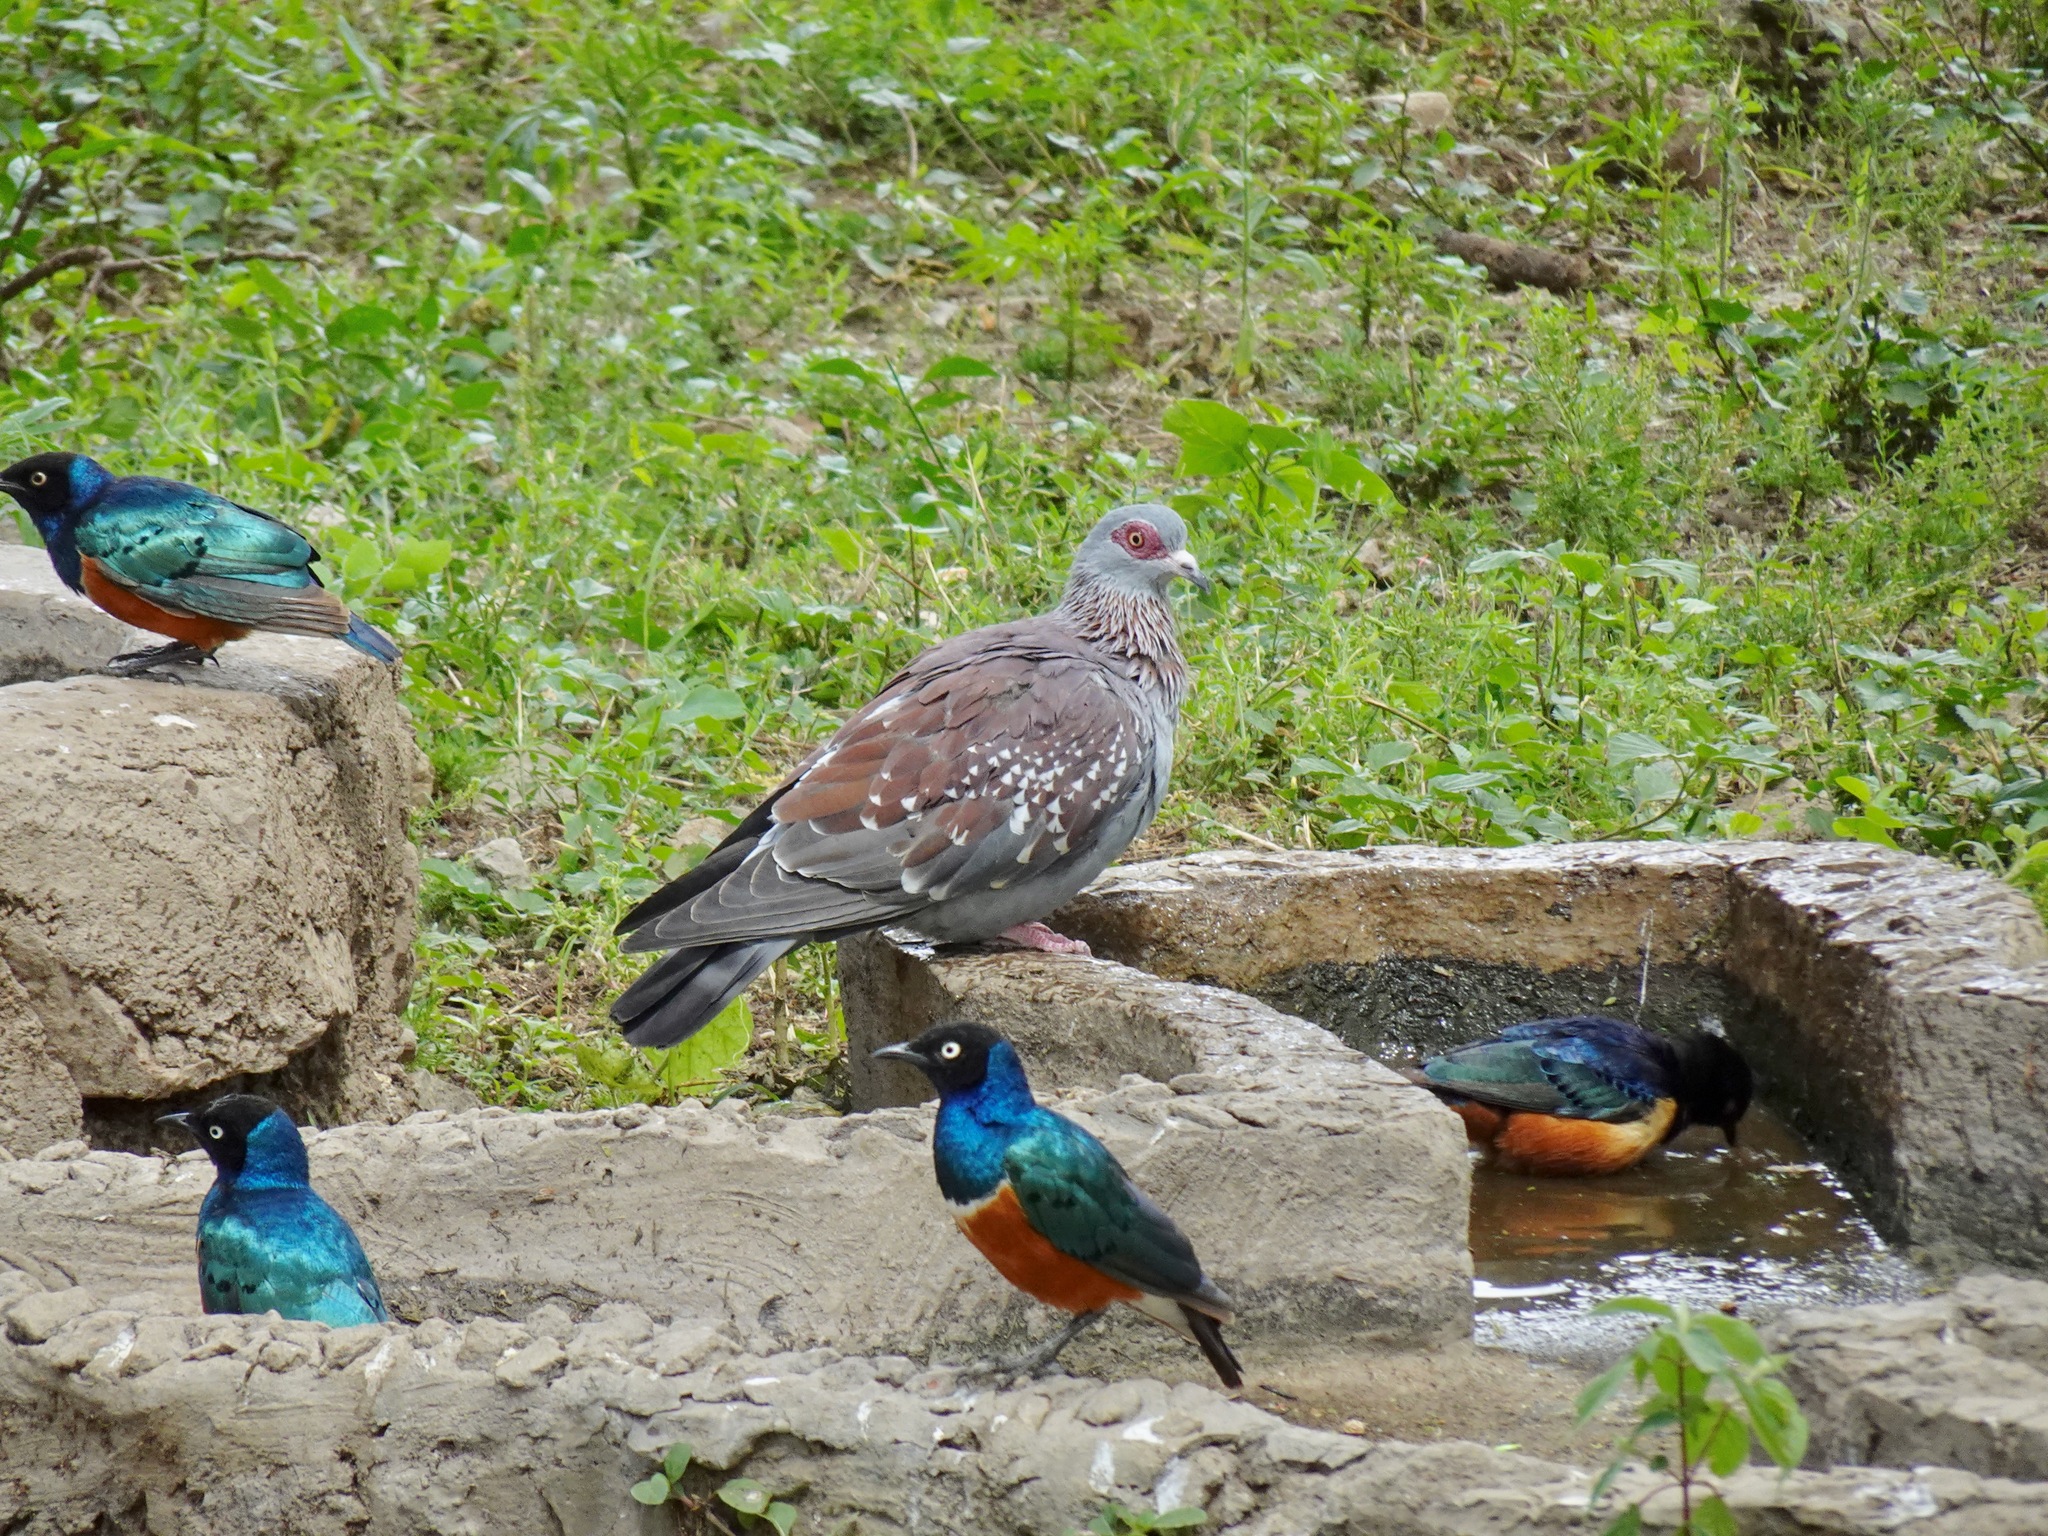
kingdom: Animalia
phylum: Chordata
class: Aves
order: Columbiformes
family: Columbidae
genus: Columba
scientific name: Columba guinea
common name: Speckled pigeon
